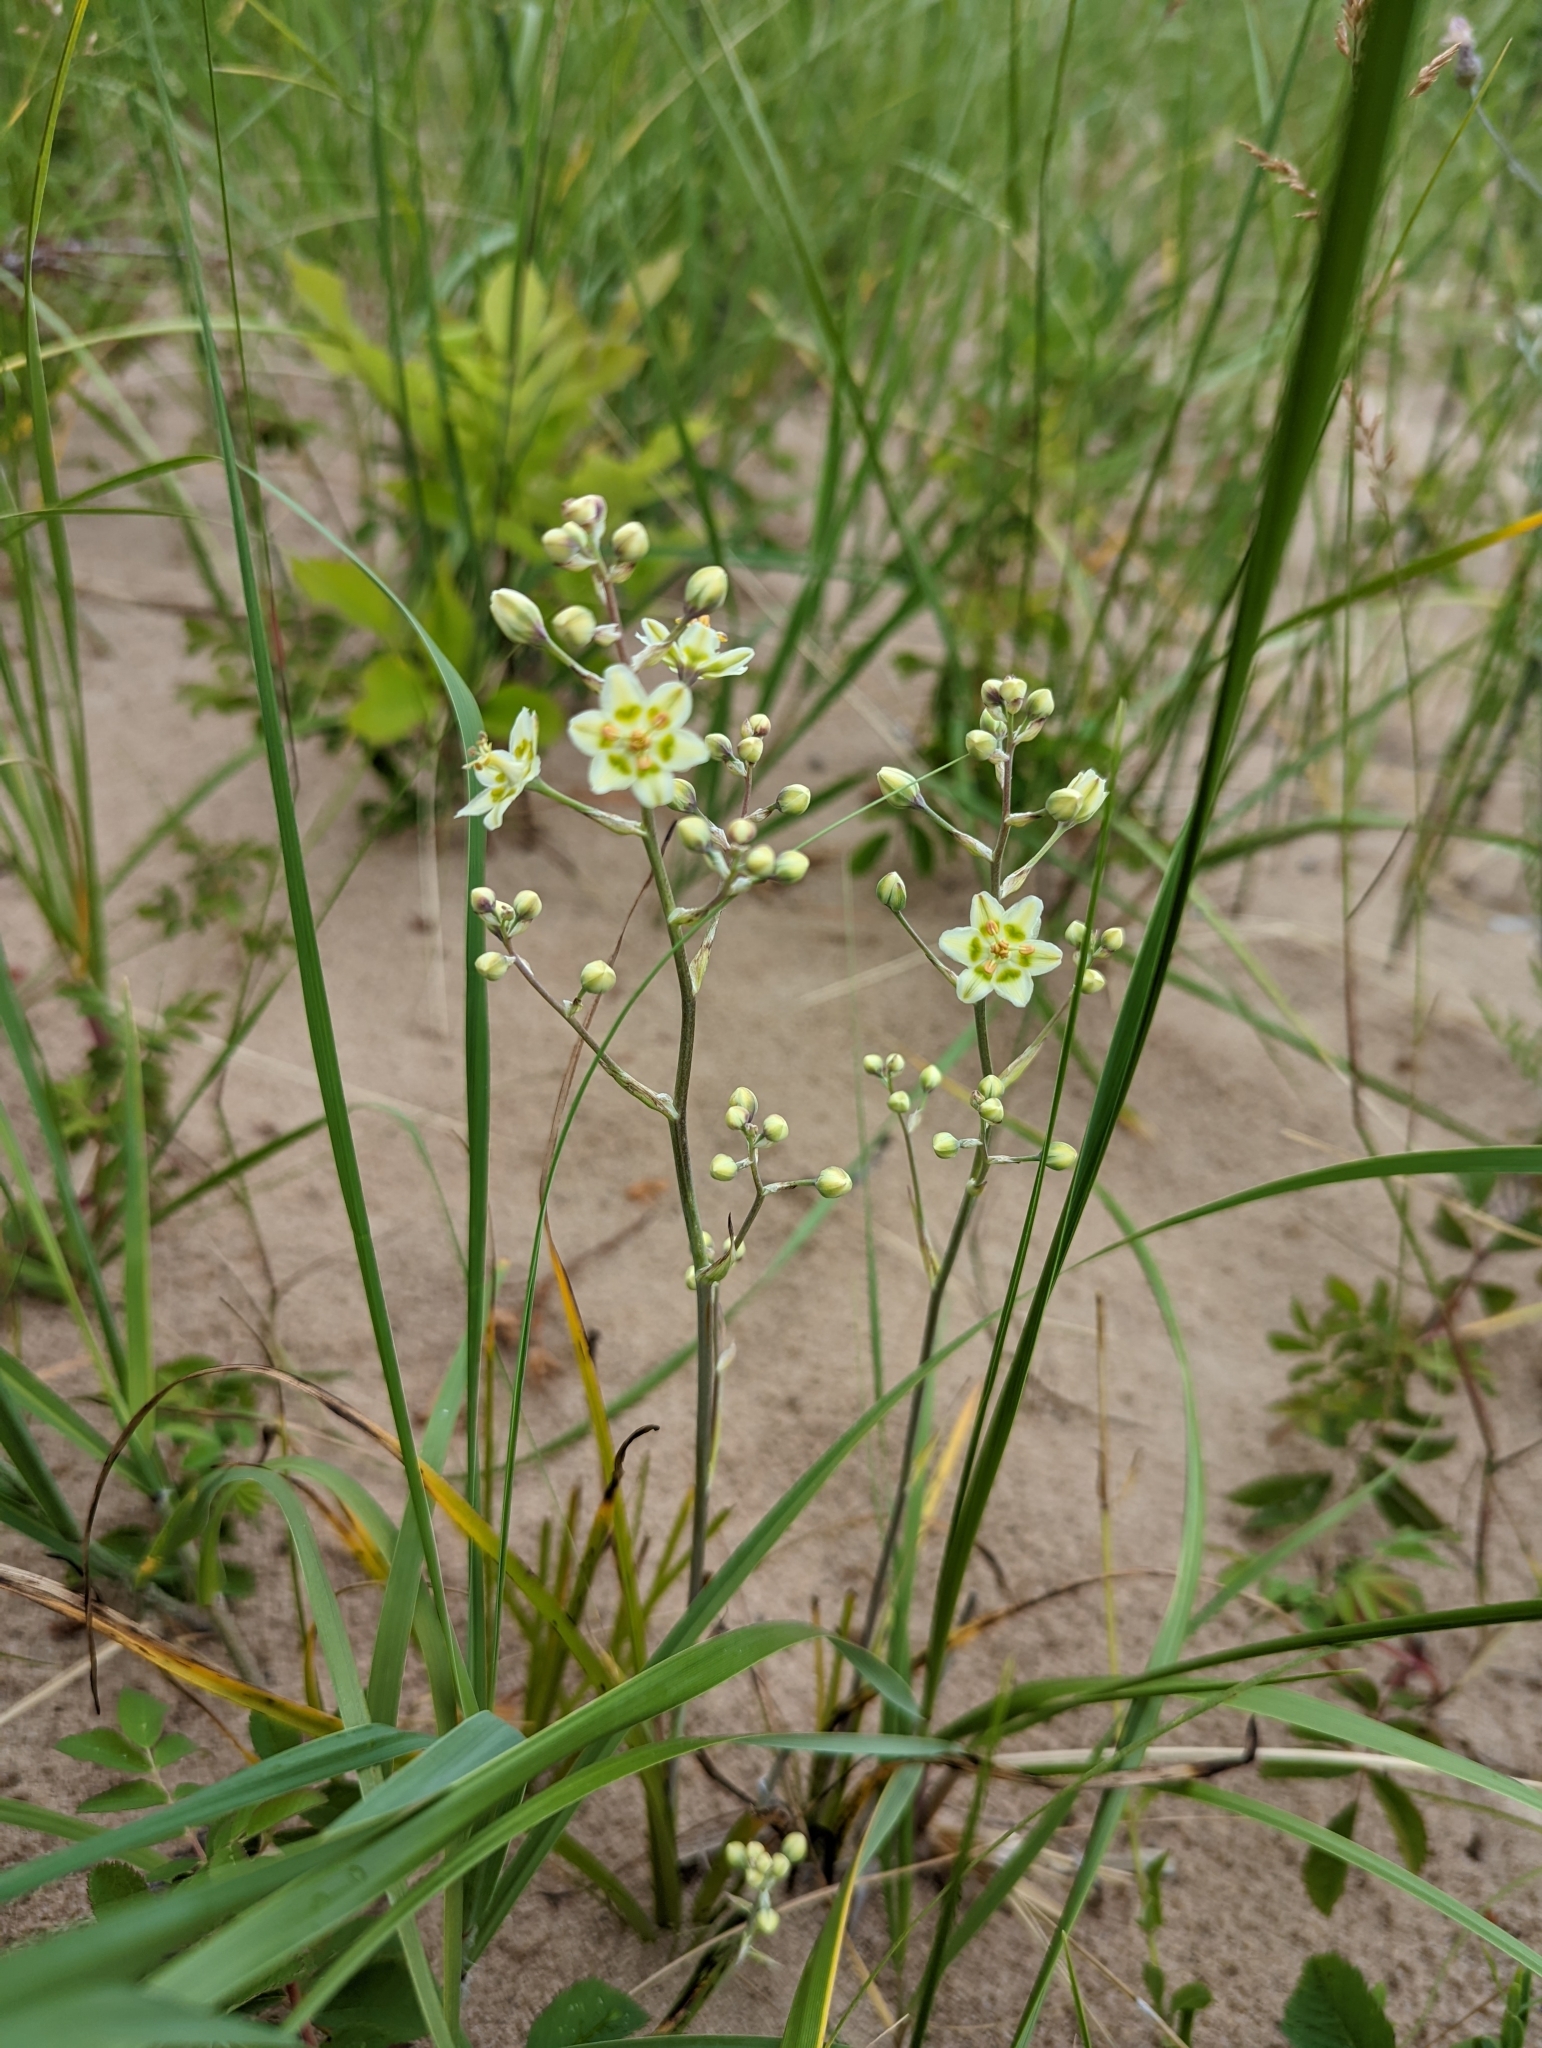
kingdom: Plantae
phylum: Tracheophyta
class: Liliopsida
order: Liliales
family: Melanthiaceae
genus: Anticlea
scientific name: Anticlea elegans
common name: Mountain death camas
